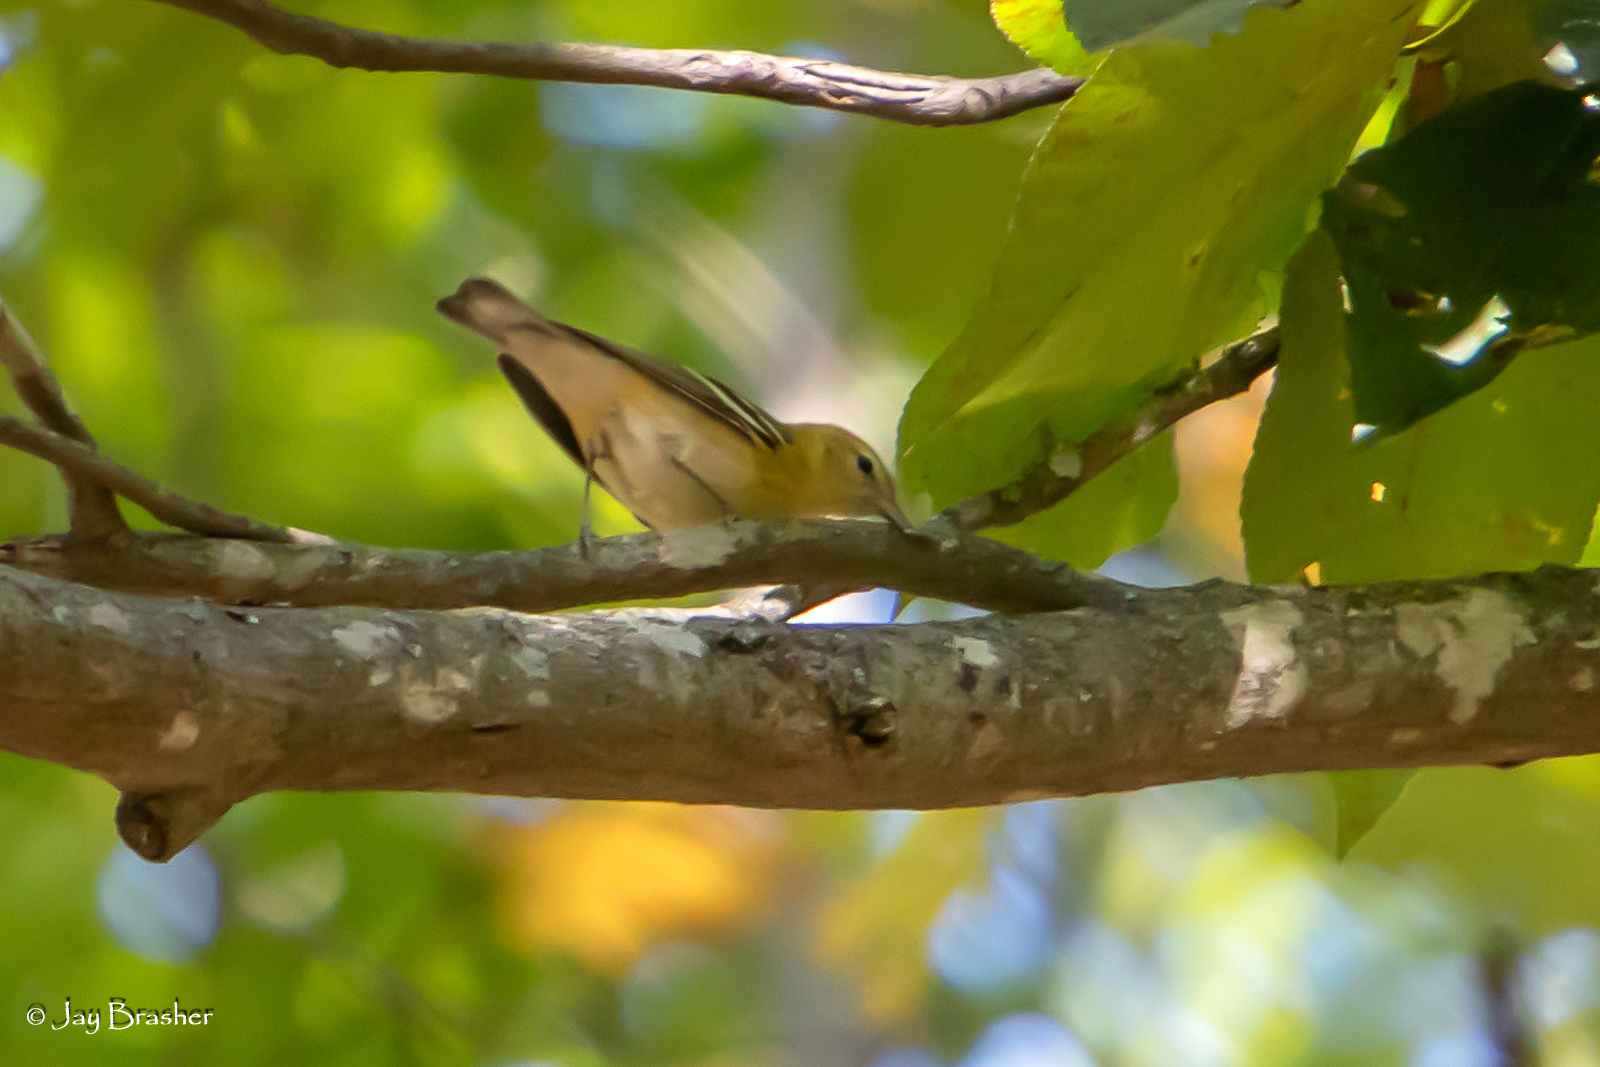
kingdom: Animalia
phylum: Chordata
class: Aves
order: Passeriformes
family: Parulidae
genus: Setophaga
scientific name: Setophaga castanea
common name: Bay-breasted warbler
